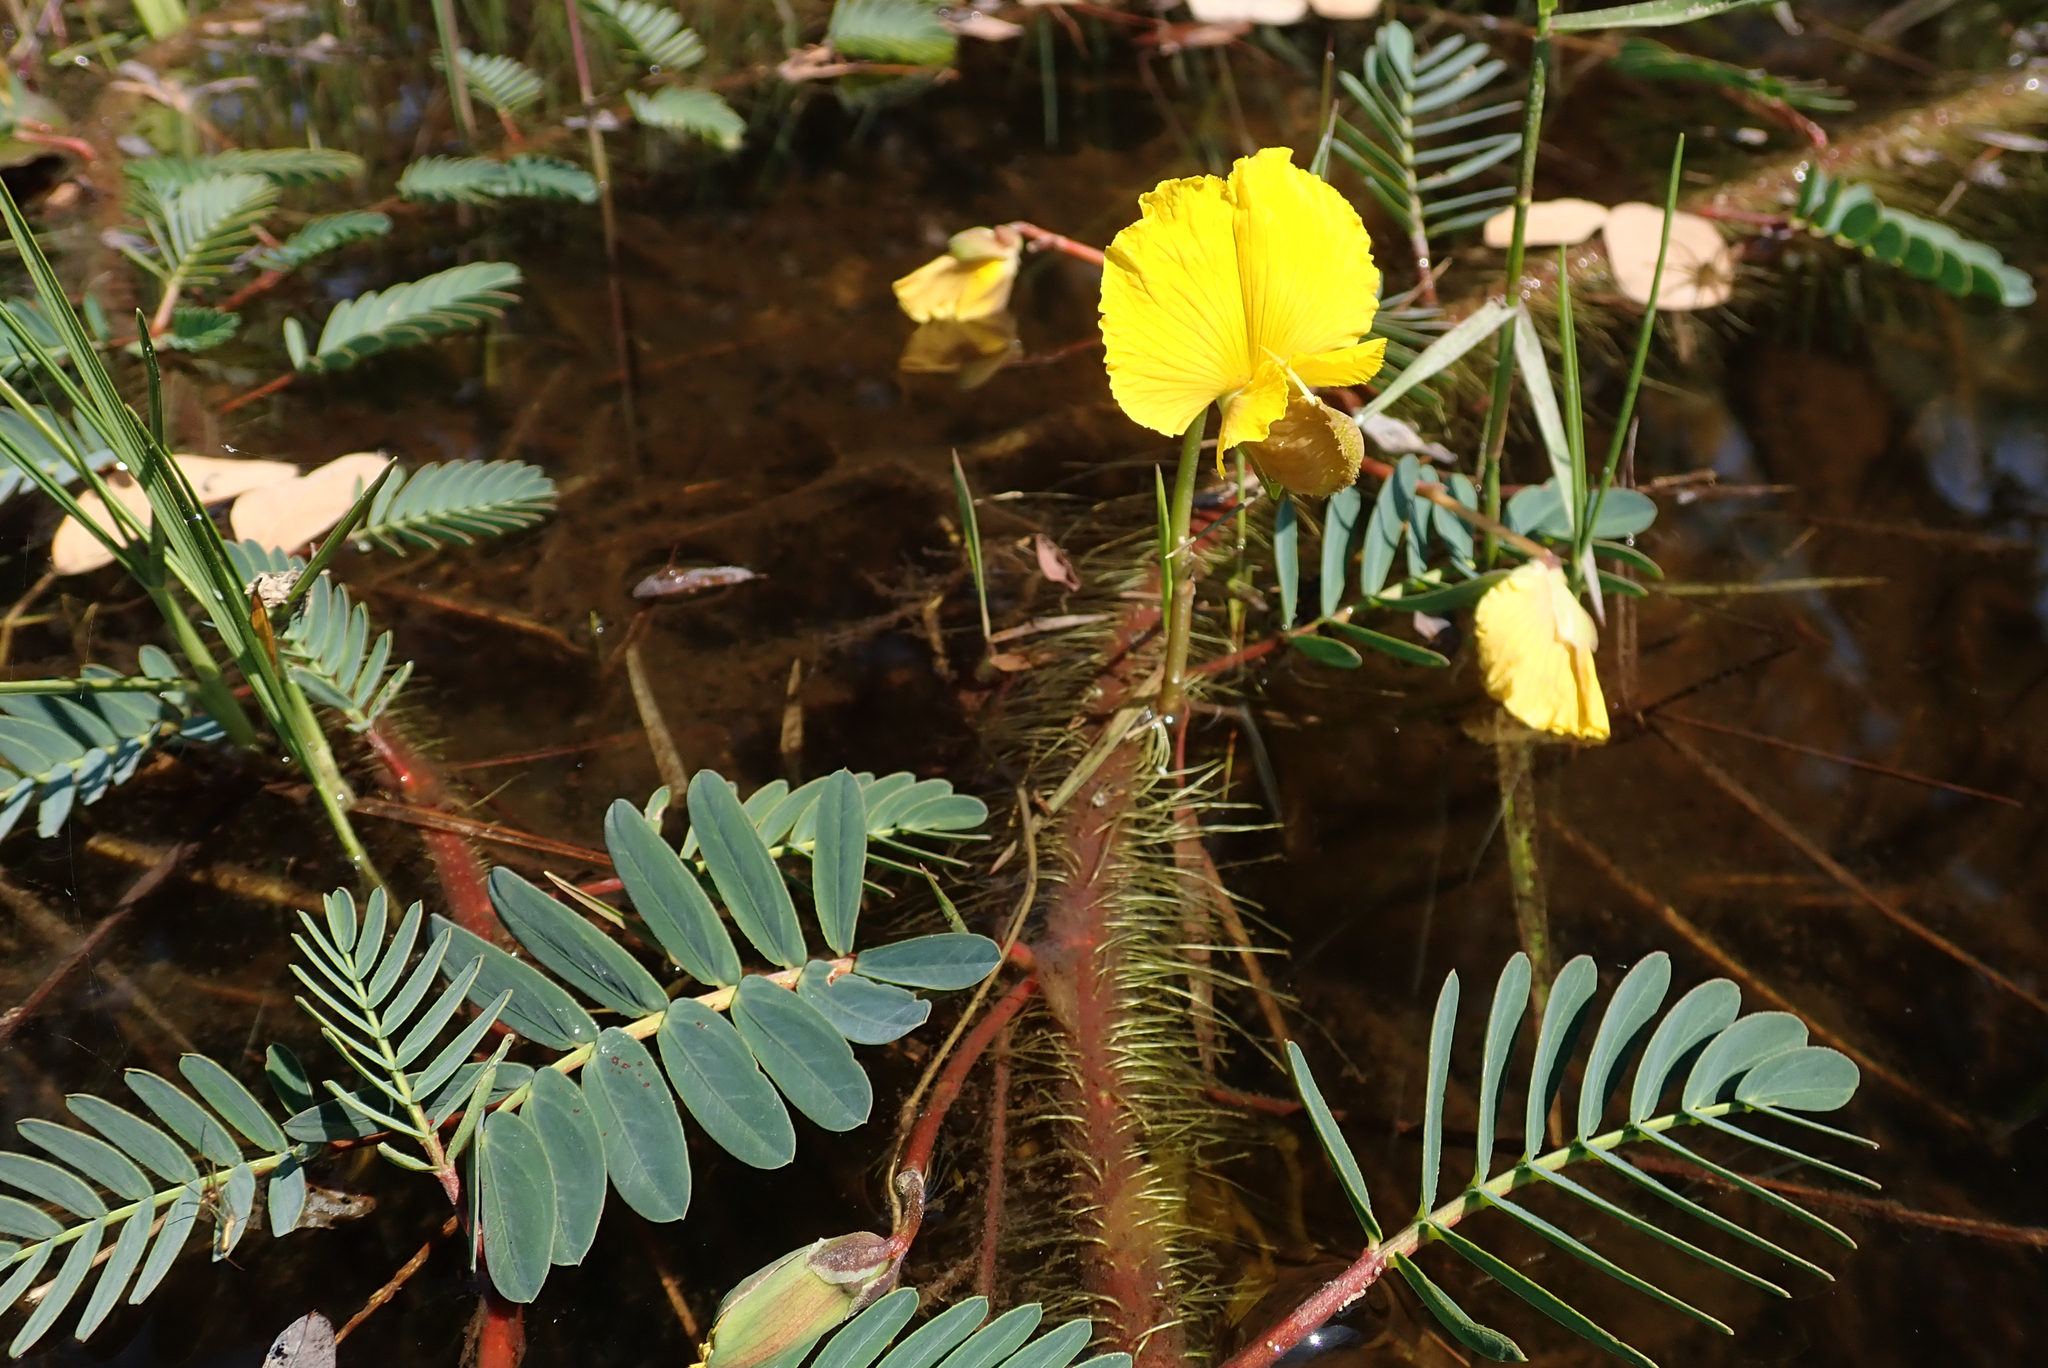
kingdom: Plantae
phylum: Tracheophyta
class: Magnoliopsida
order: Fabales
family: Fabaceae
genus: Aeschynomene
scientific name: Aeschynomene fluitans
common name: Giant water sensitive plant
